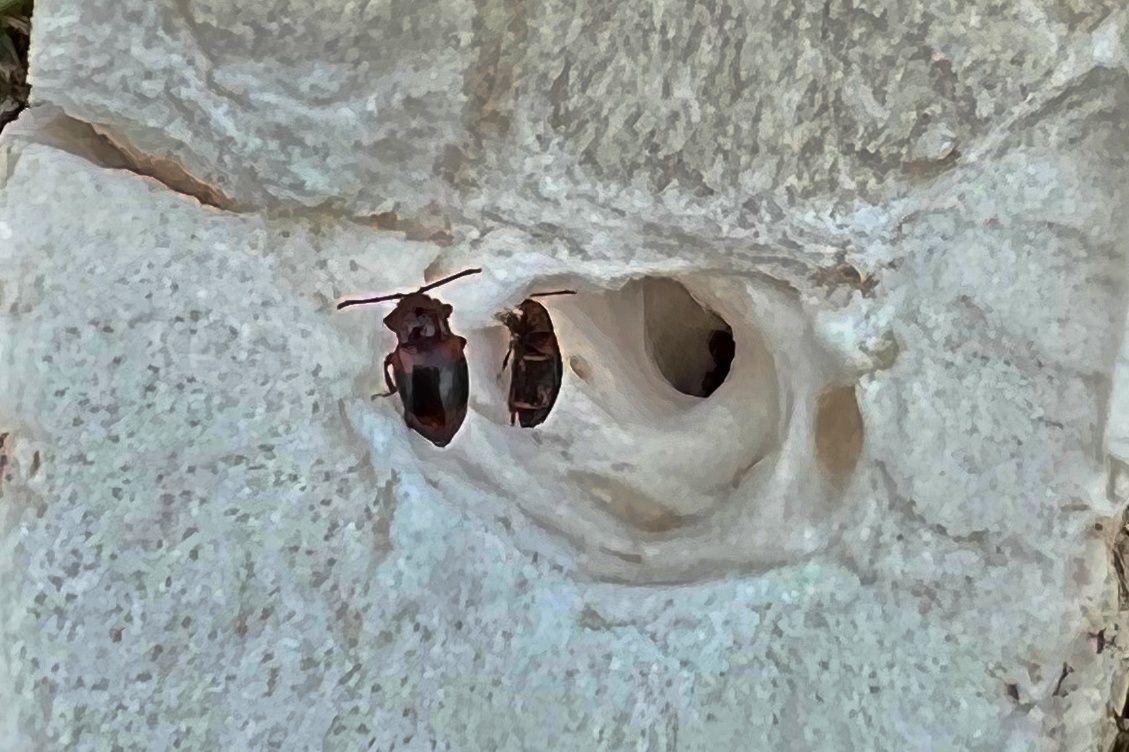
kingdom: Animalia
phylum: Arthropoda
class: Insecta
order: Coleoptera
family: Endomychidae
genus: Lycoperdina
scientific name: Lycoperdina succincta
